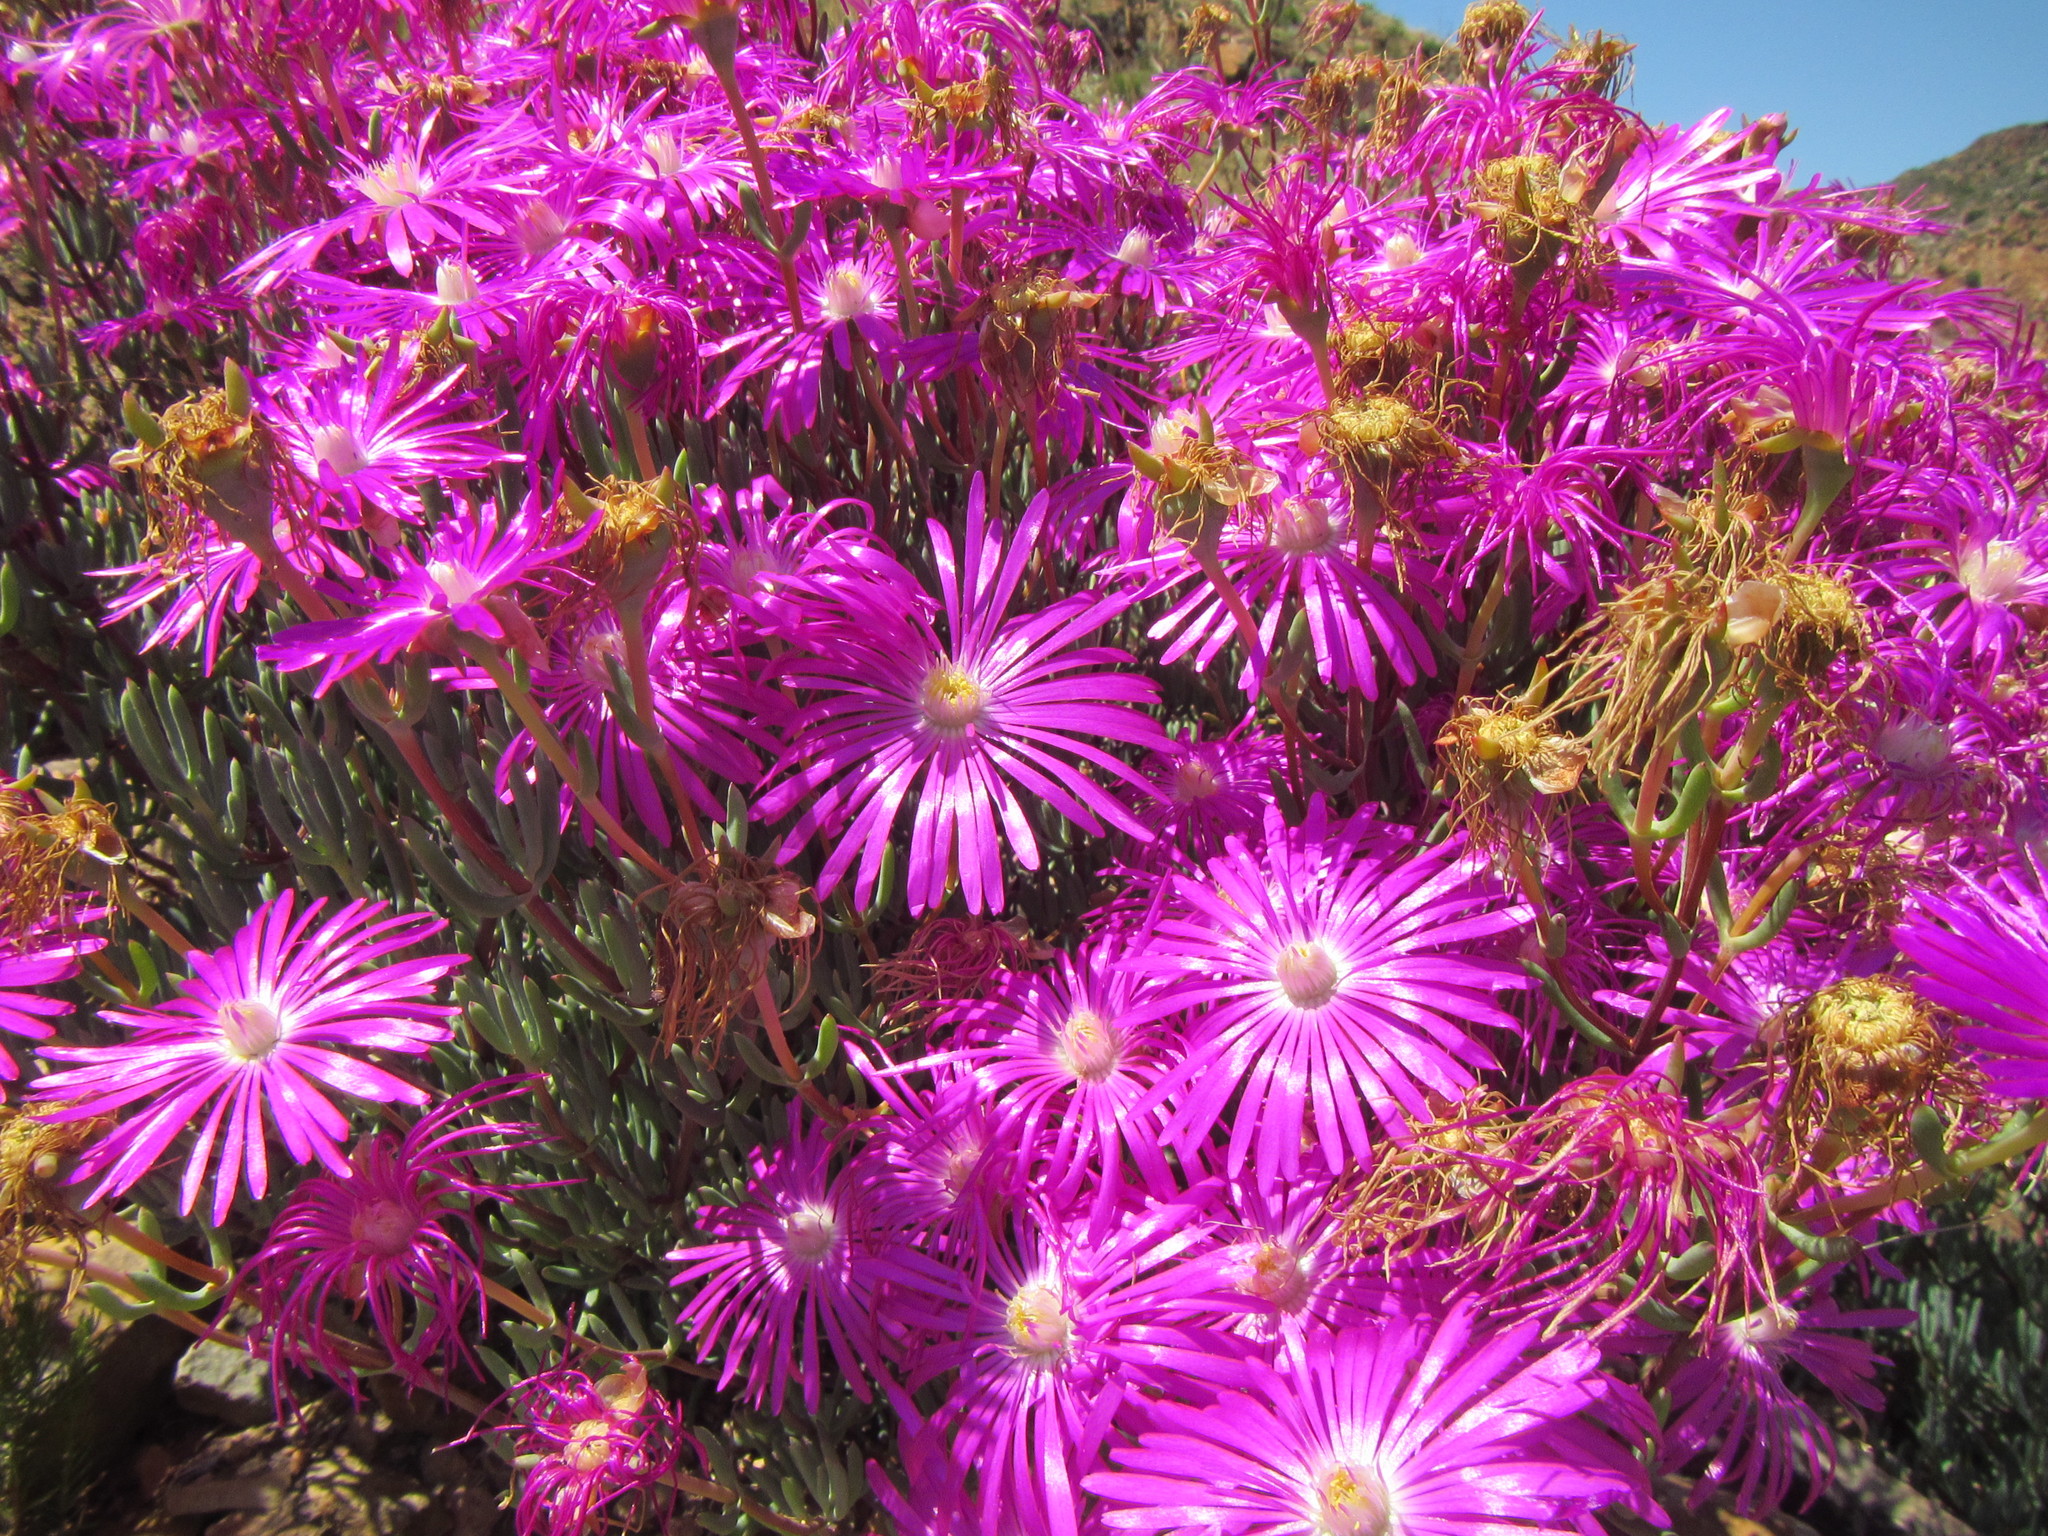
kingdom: Plantae
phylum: Tracheophyta
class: Magnoliopsida
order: Caryophyllales
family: Aizoaceae
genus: Lampranthus
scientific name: Lampranthus coralliflorus
